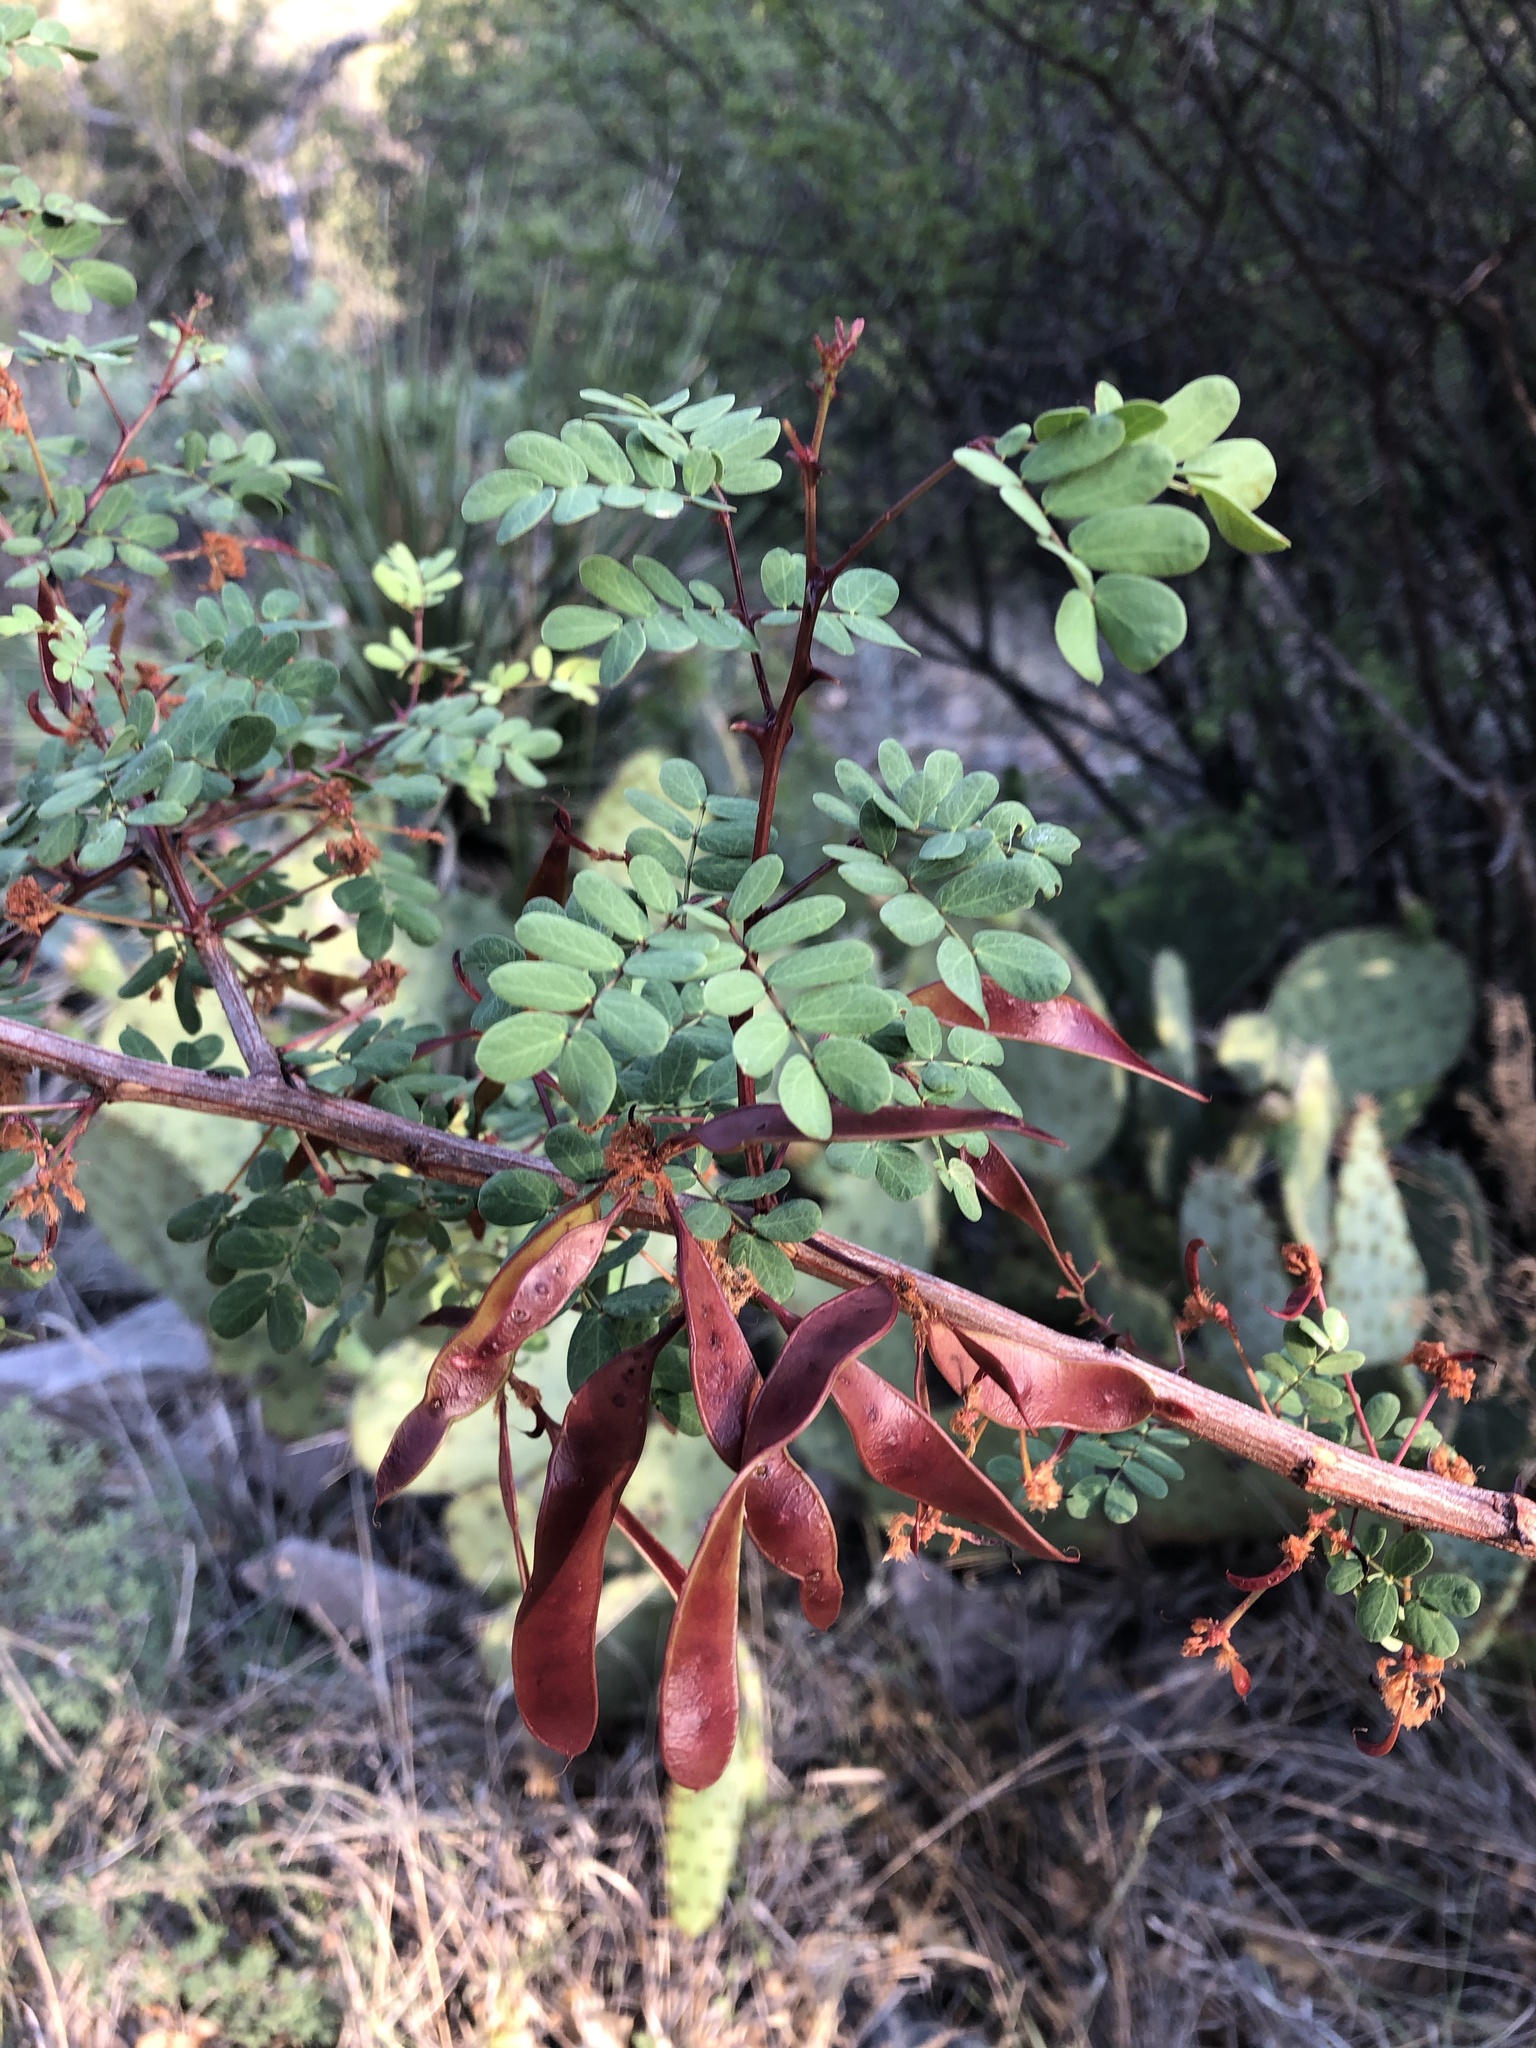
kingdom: Plantae
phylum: Tracheophyta
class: Magnoliopsida
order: Fabales
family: Fabaceae
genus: Senegalia
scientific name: Senegalia roemeriana
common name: Roemer's acacia
